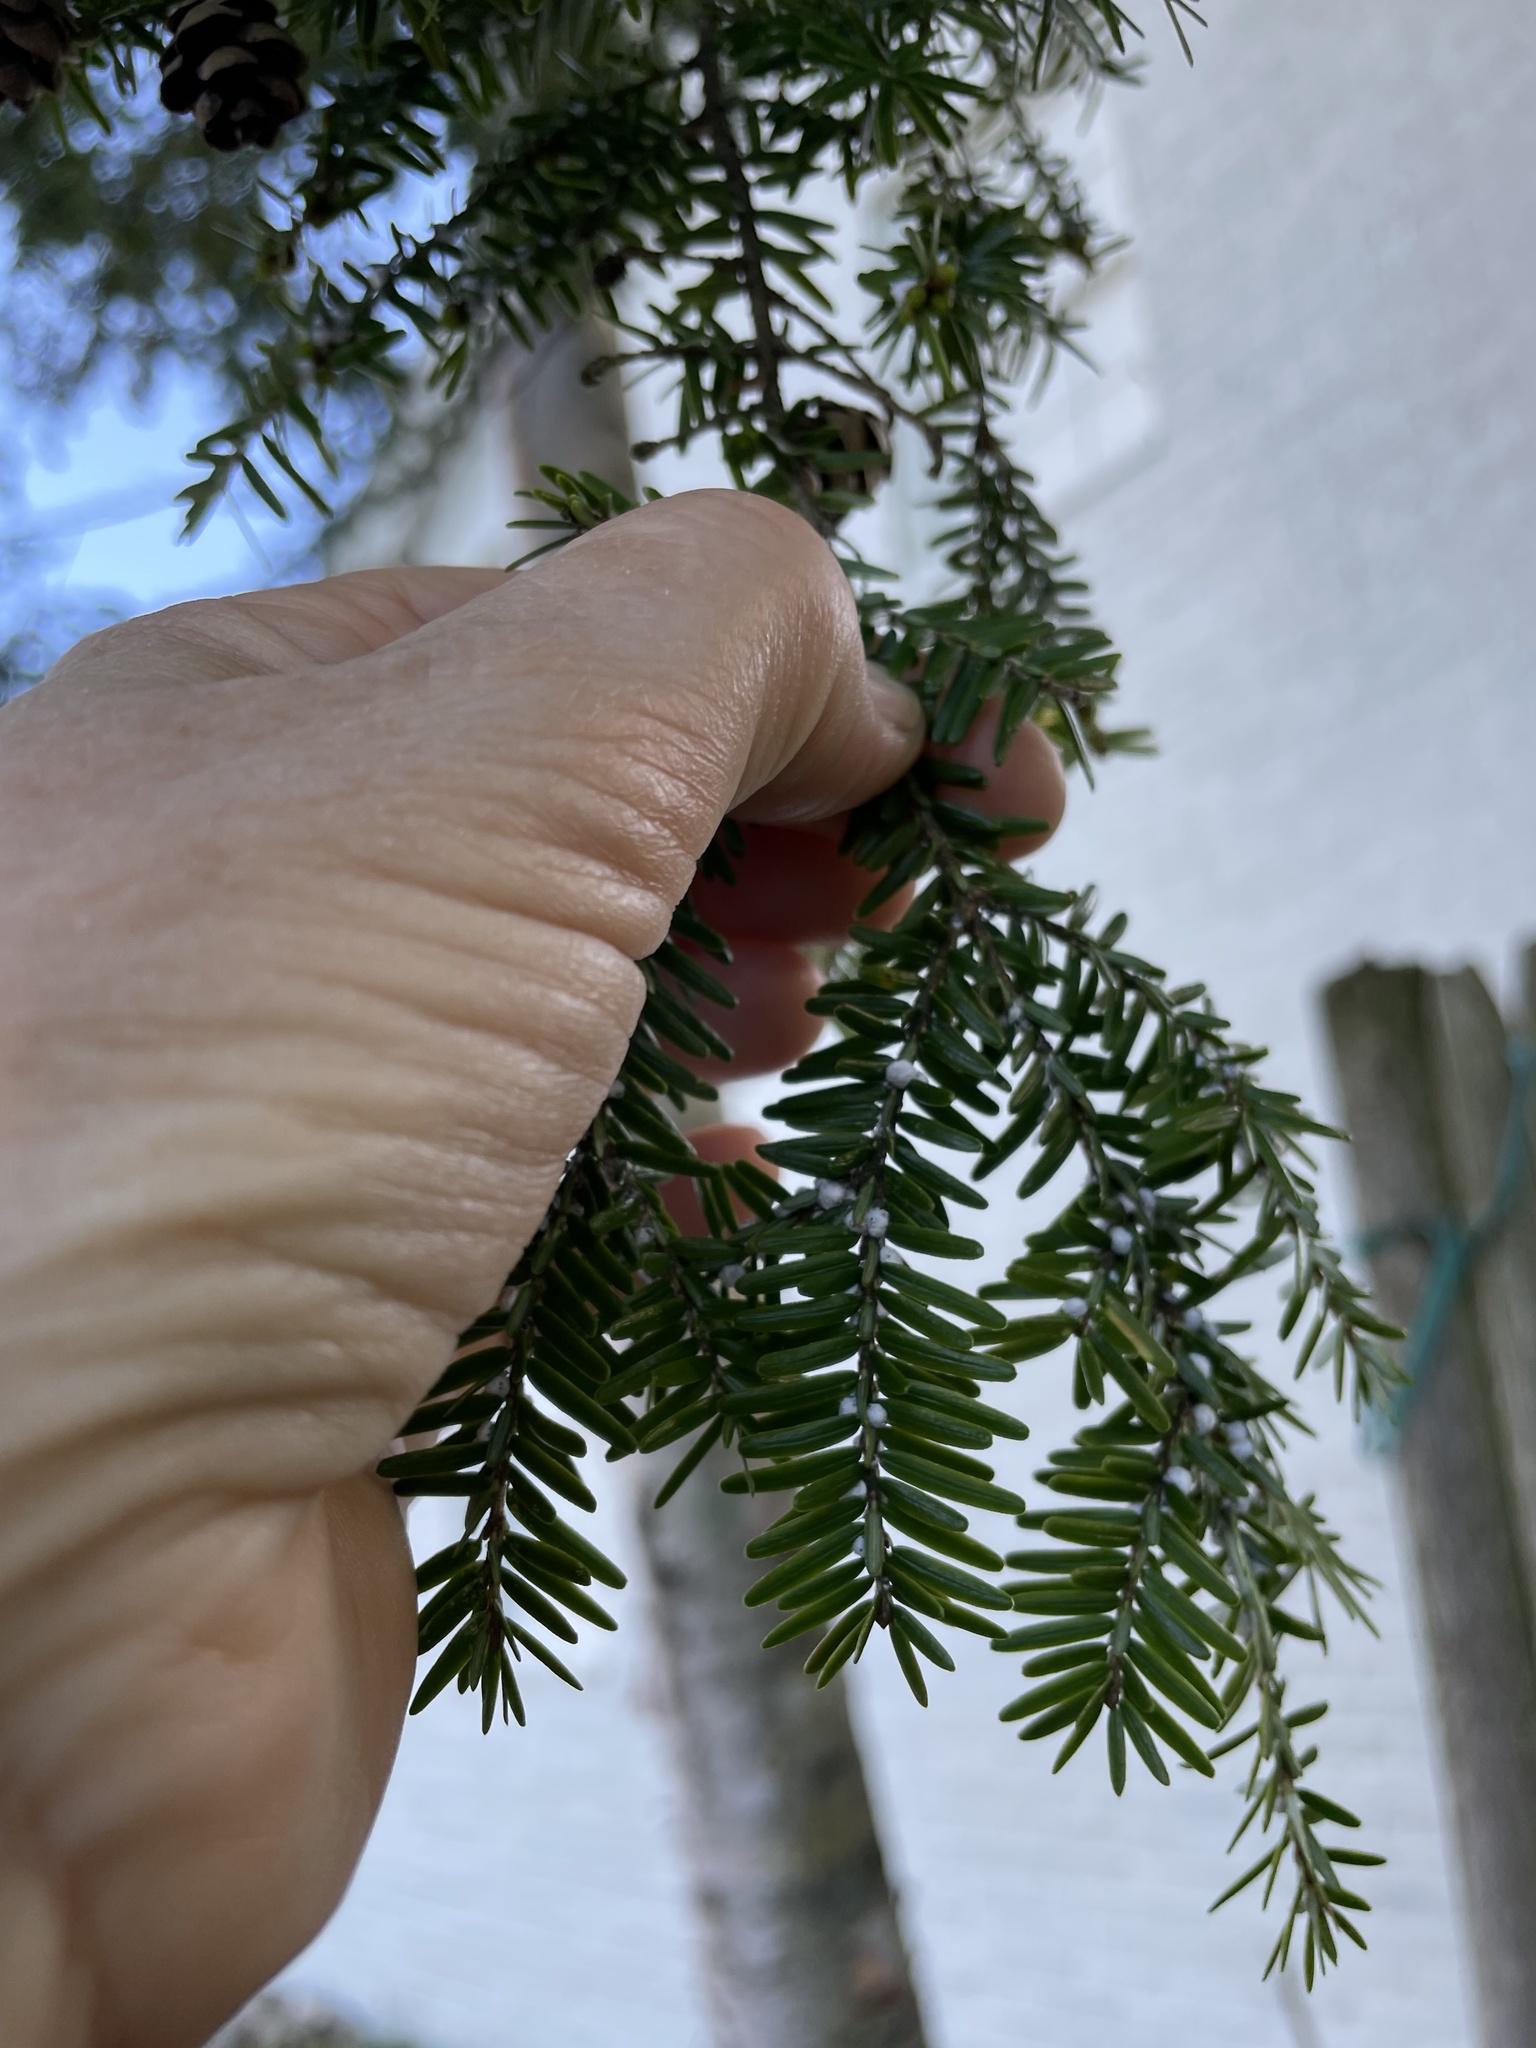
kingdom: Plantae
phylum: Tracheophyta
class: Pinopsida
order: Pinales
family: Pinaceae
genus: Tsuga
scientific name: Tsuga canadensis
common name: Eastern hemlock
